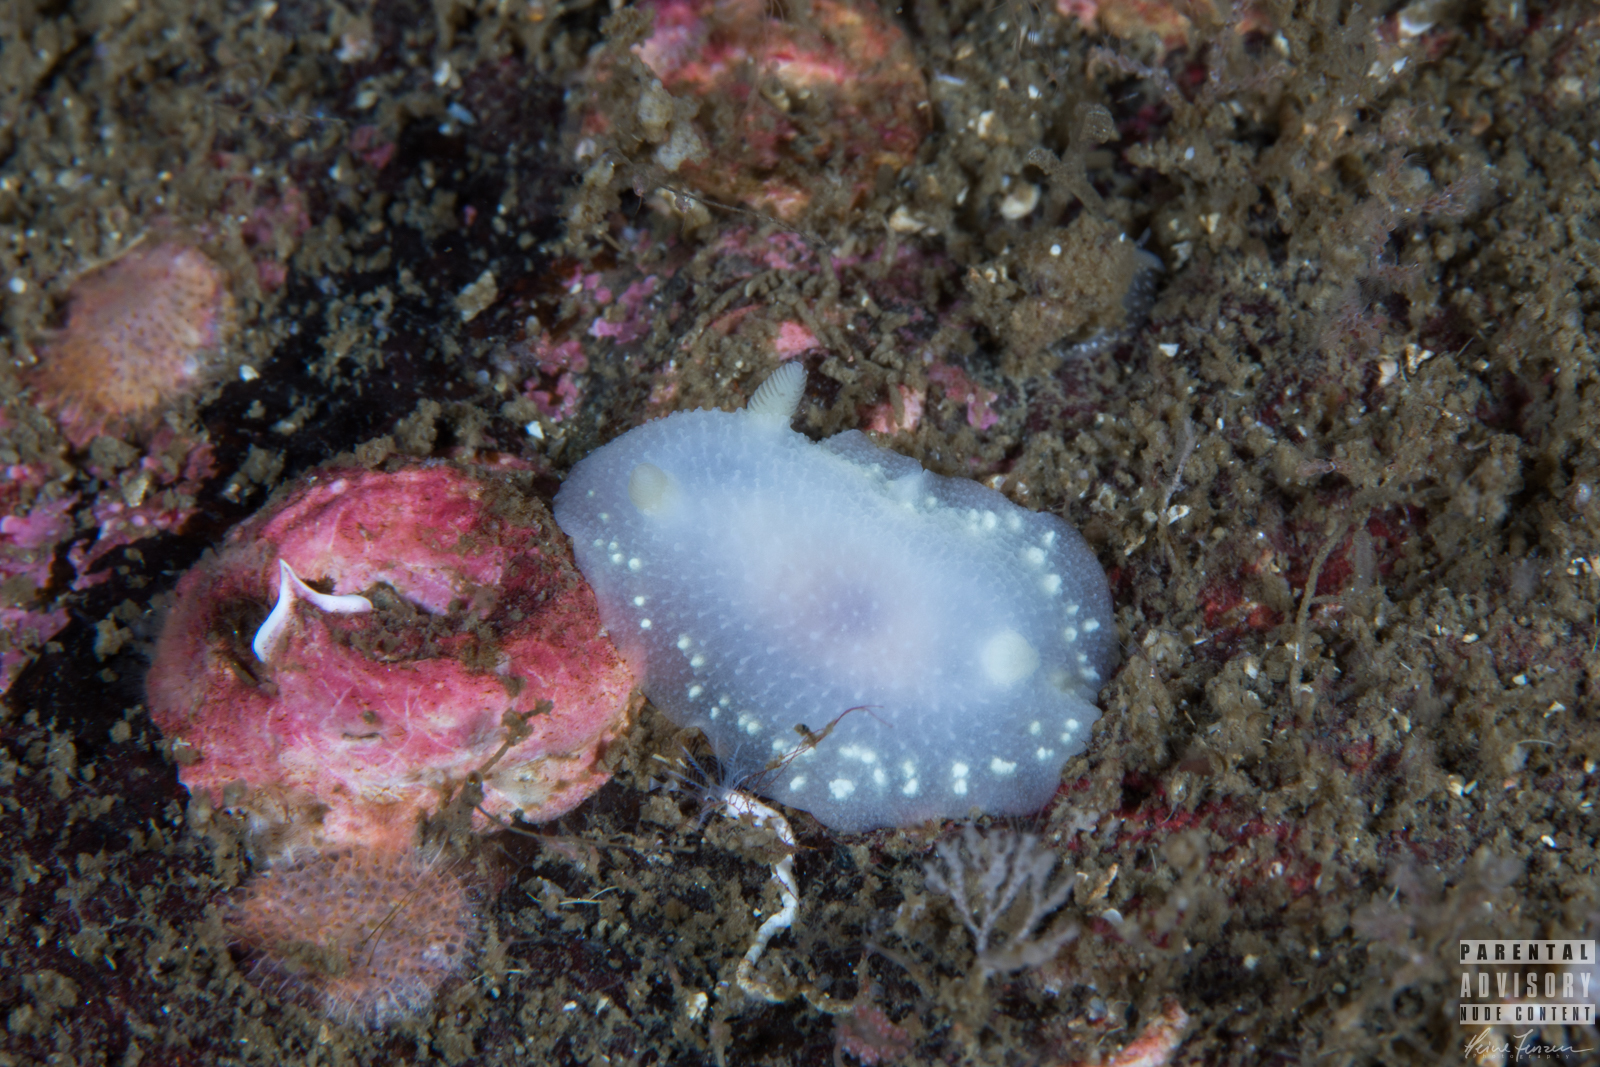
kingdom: Animalia
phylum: Mollusca
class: Gastropoda
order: Nudibranchia
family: Cadlinidae
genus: Cadlina
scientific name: Cadlina laevis
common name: White atlantic cadlina
